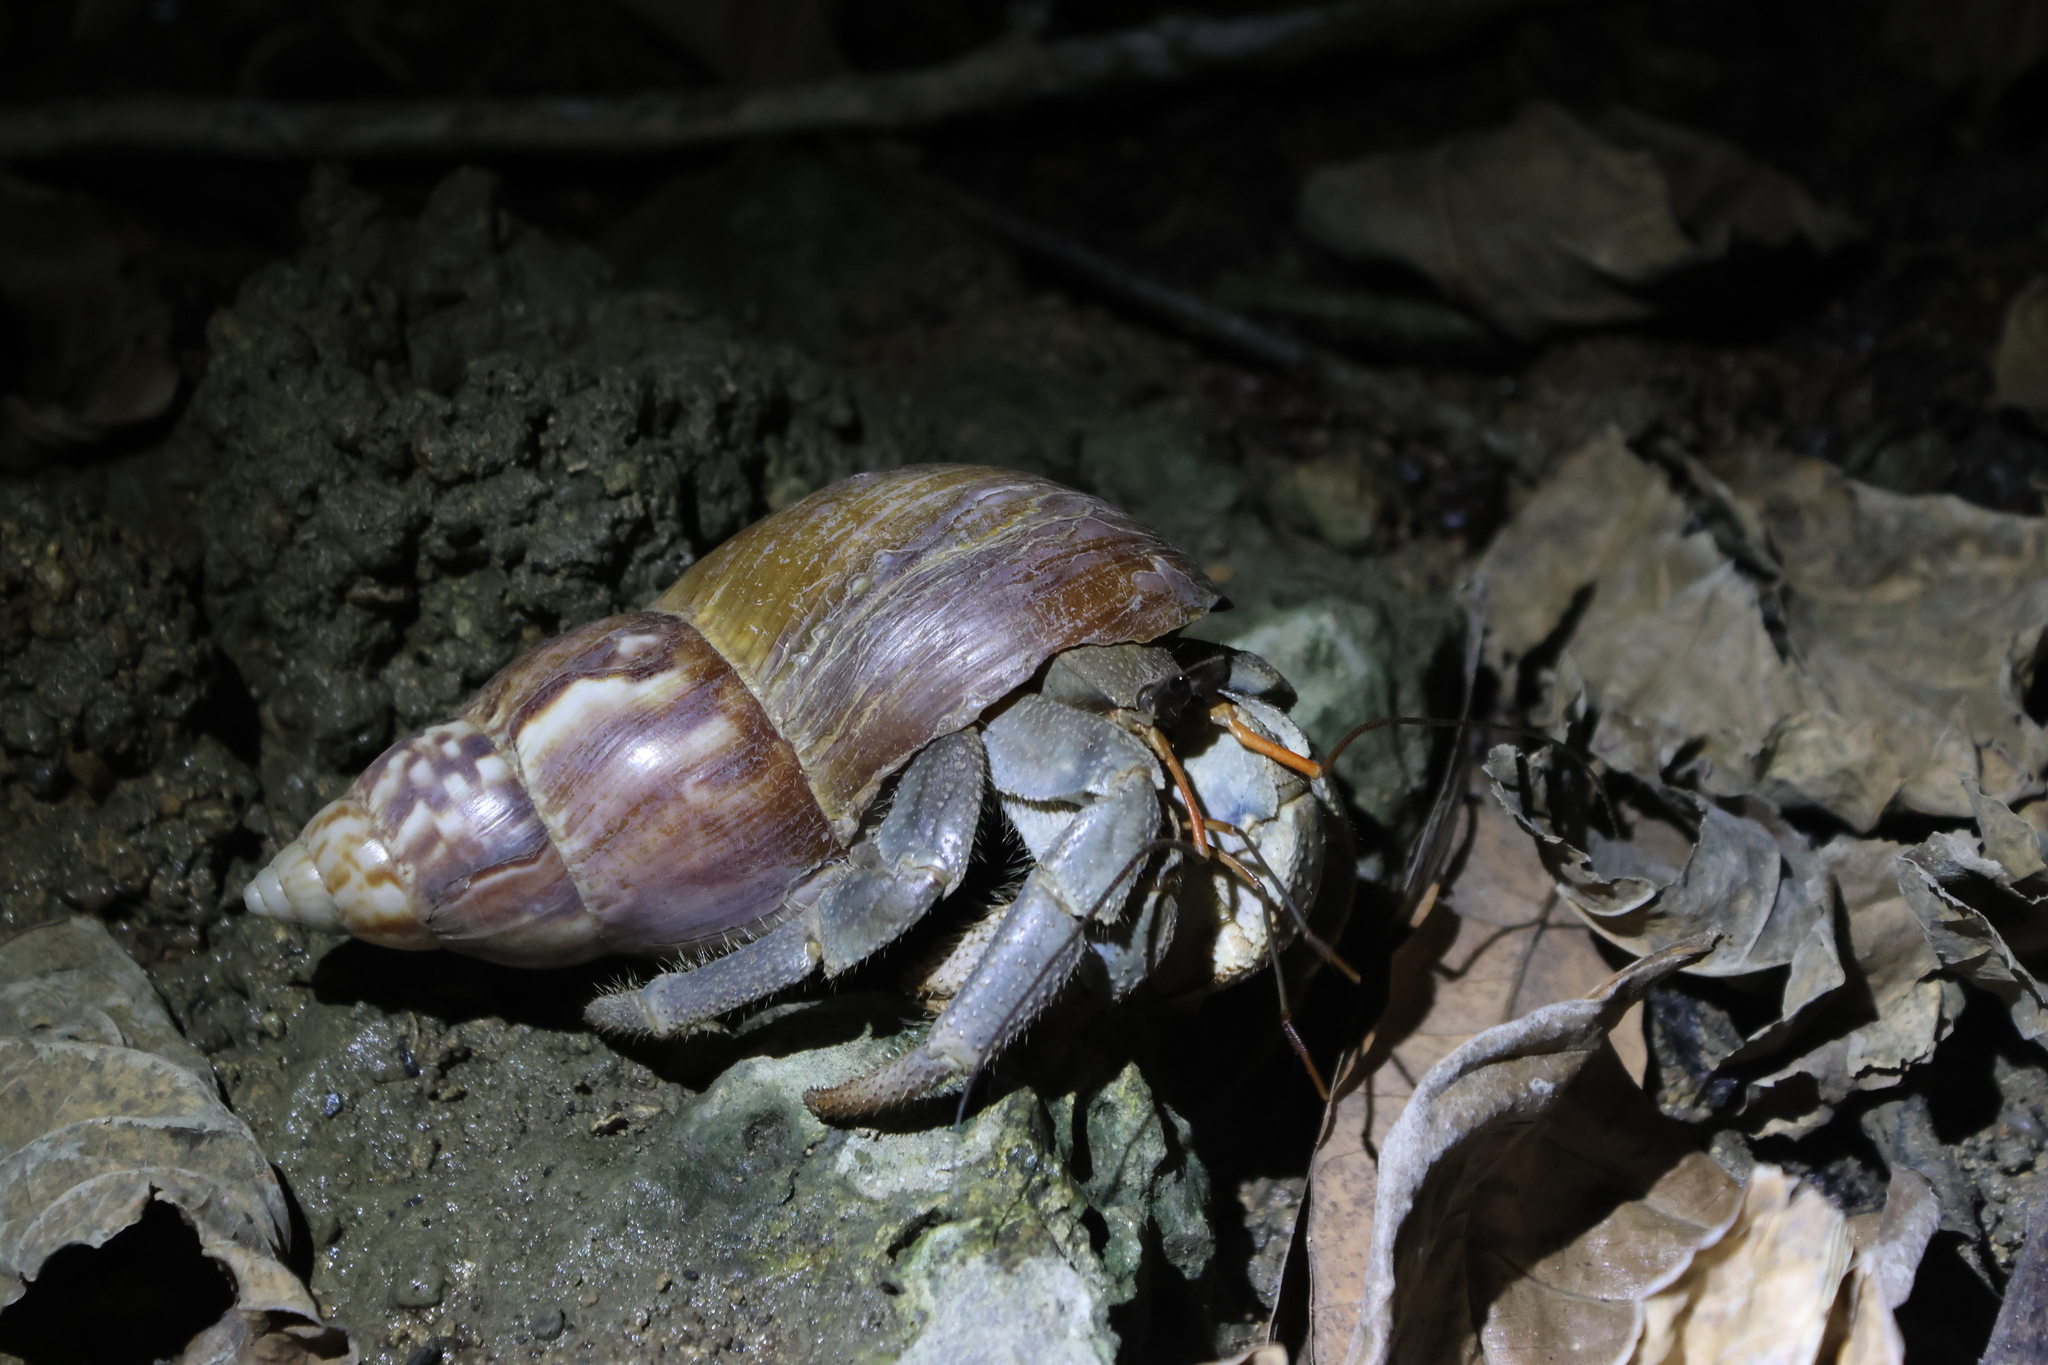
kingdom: Animalia
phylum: Arthropoda
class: Malacostraca
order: Decapoda
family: Coenobitidae
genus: Coenobita
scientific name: Coenobita cavipes
